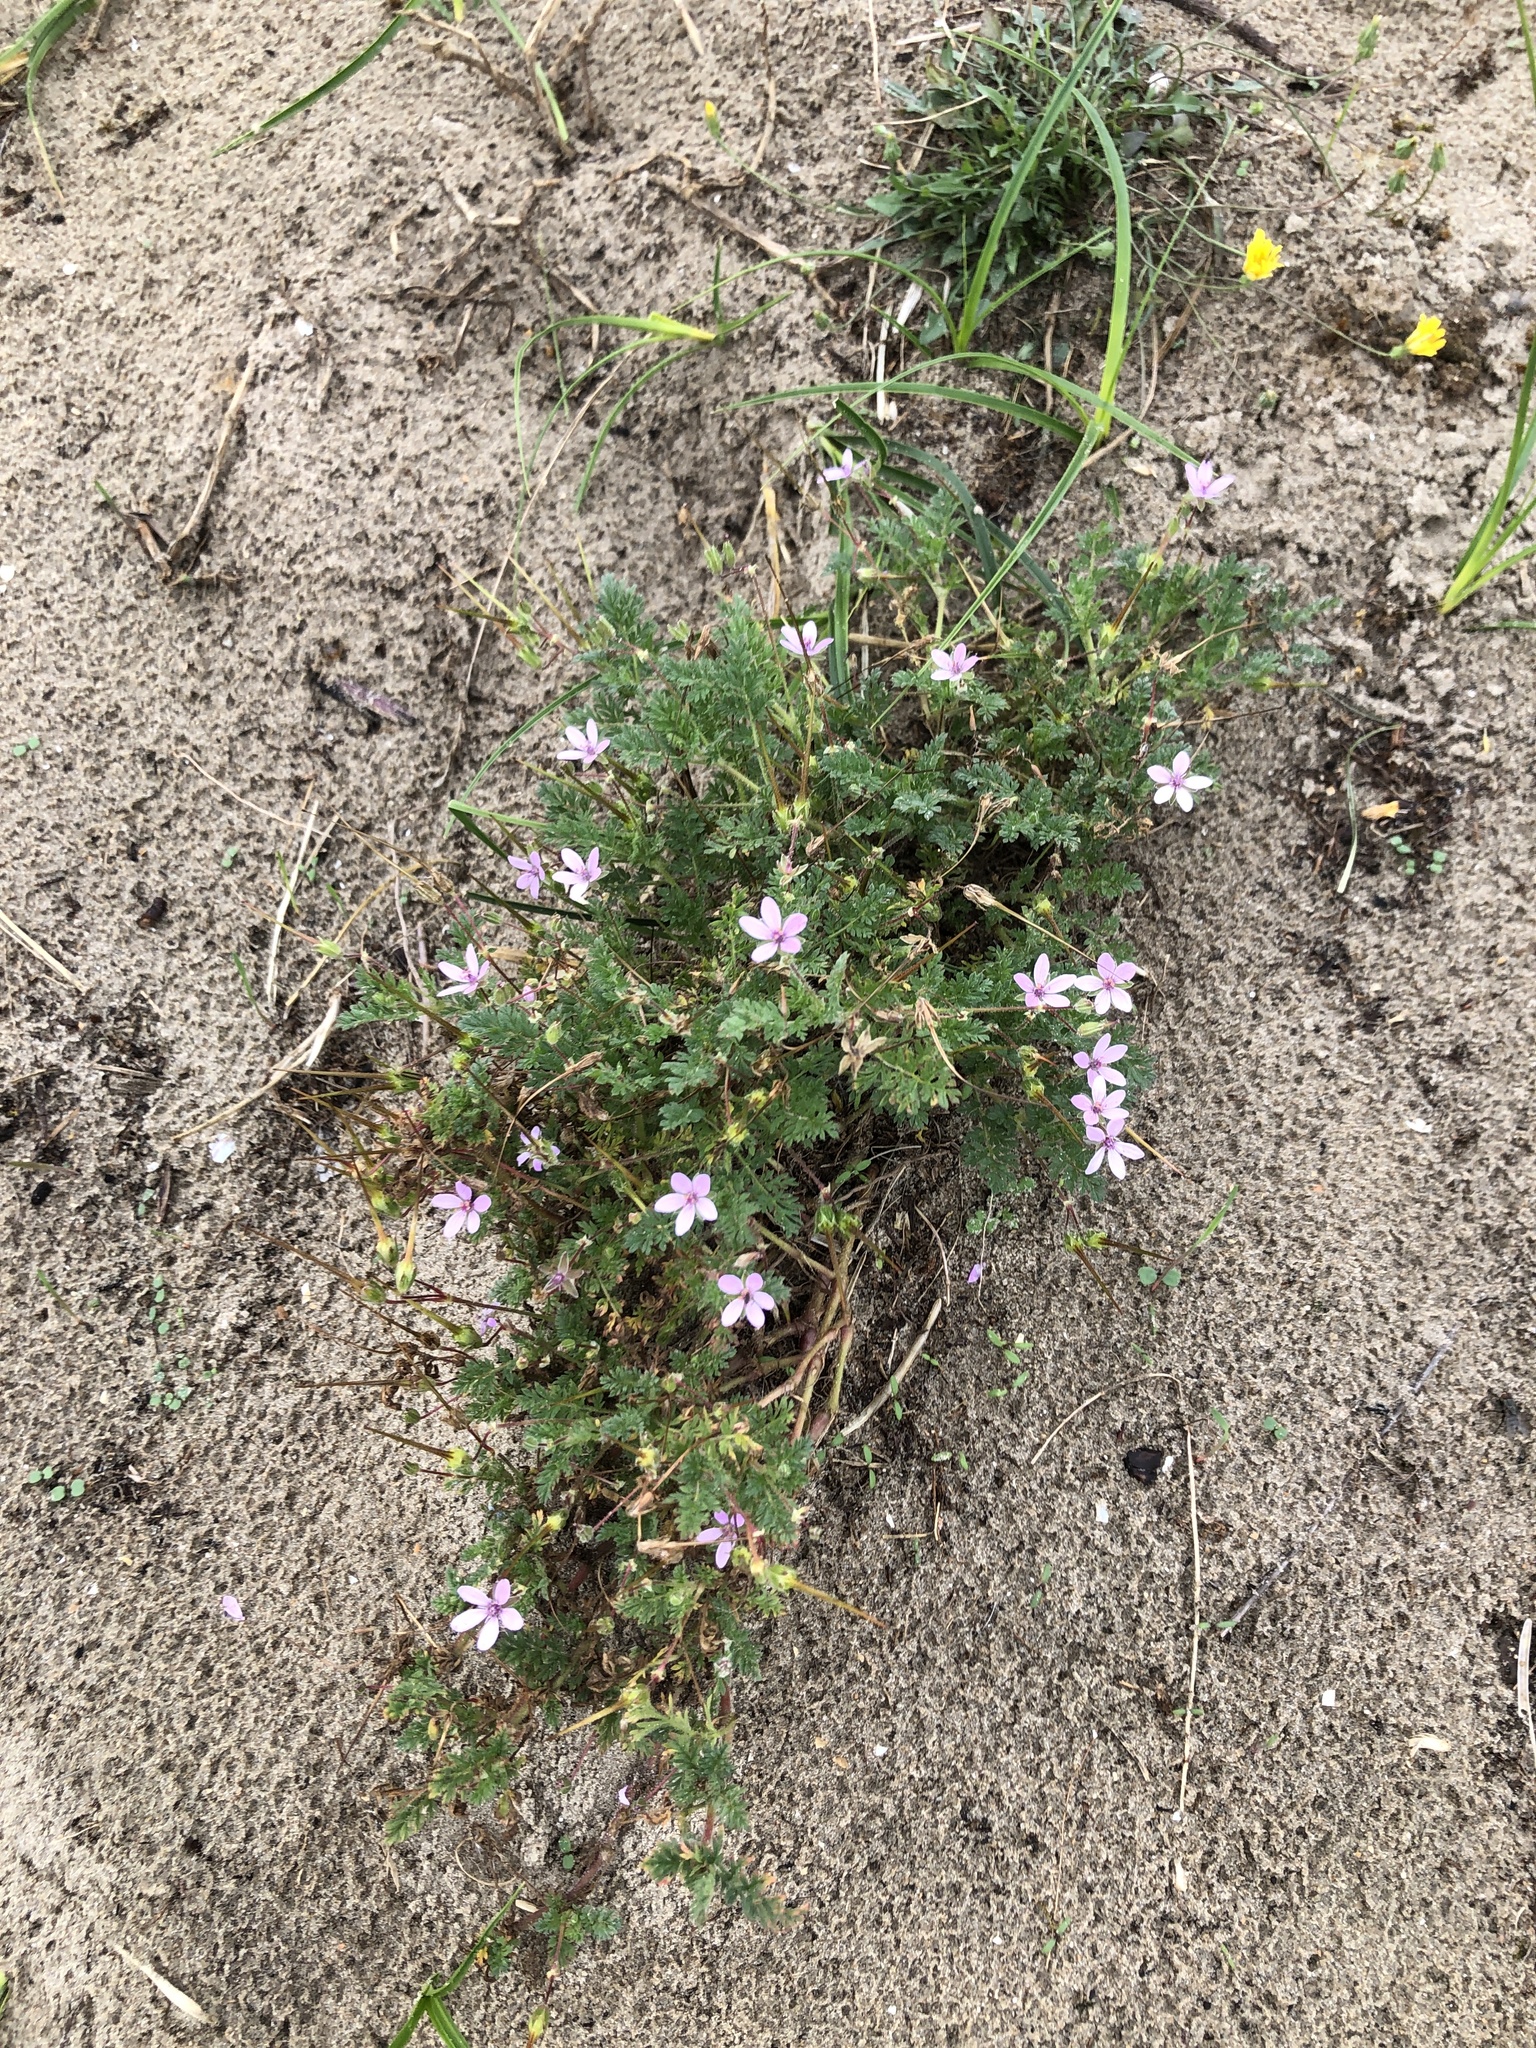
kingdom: Plantae
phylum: Tracheophyta
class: Magnoliopsida
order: Geraniales
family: Geraniaceae
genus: Erodium
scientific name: Erodium cicutarium
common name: Common stork's-bill
